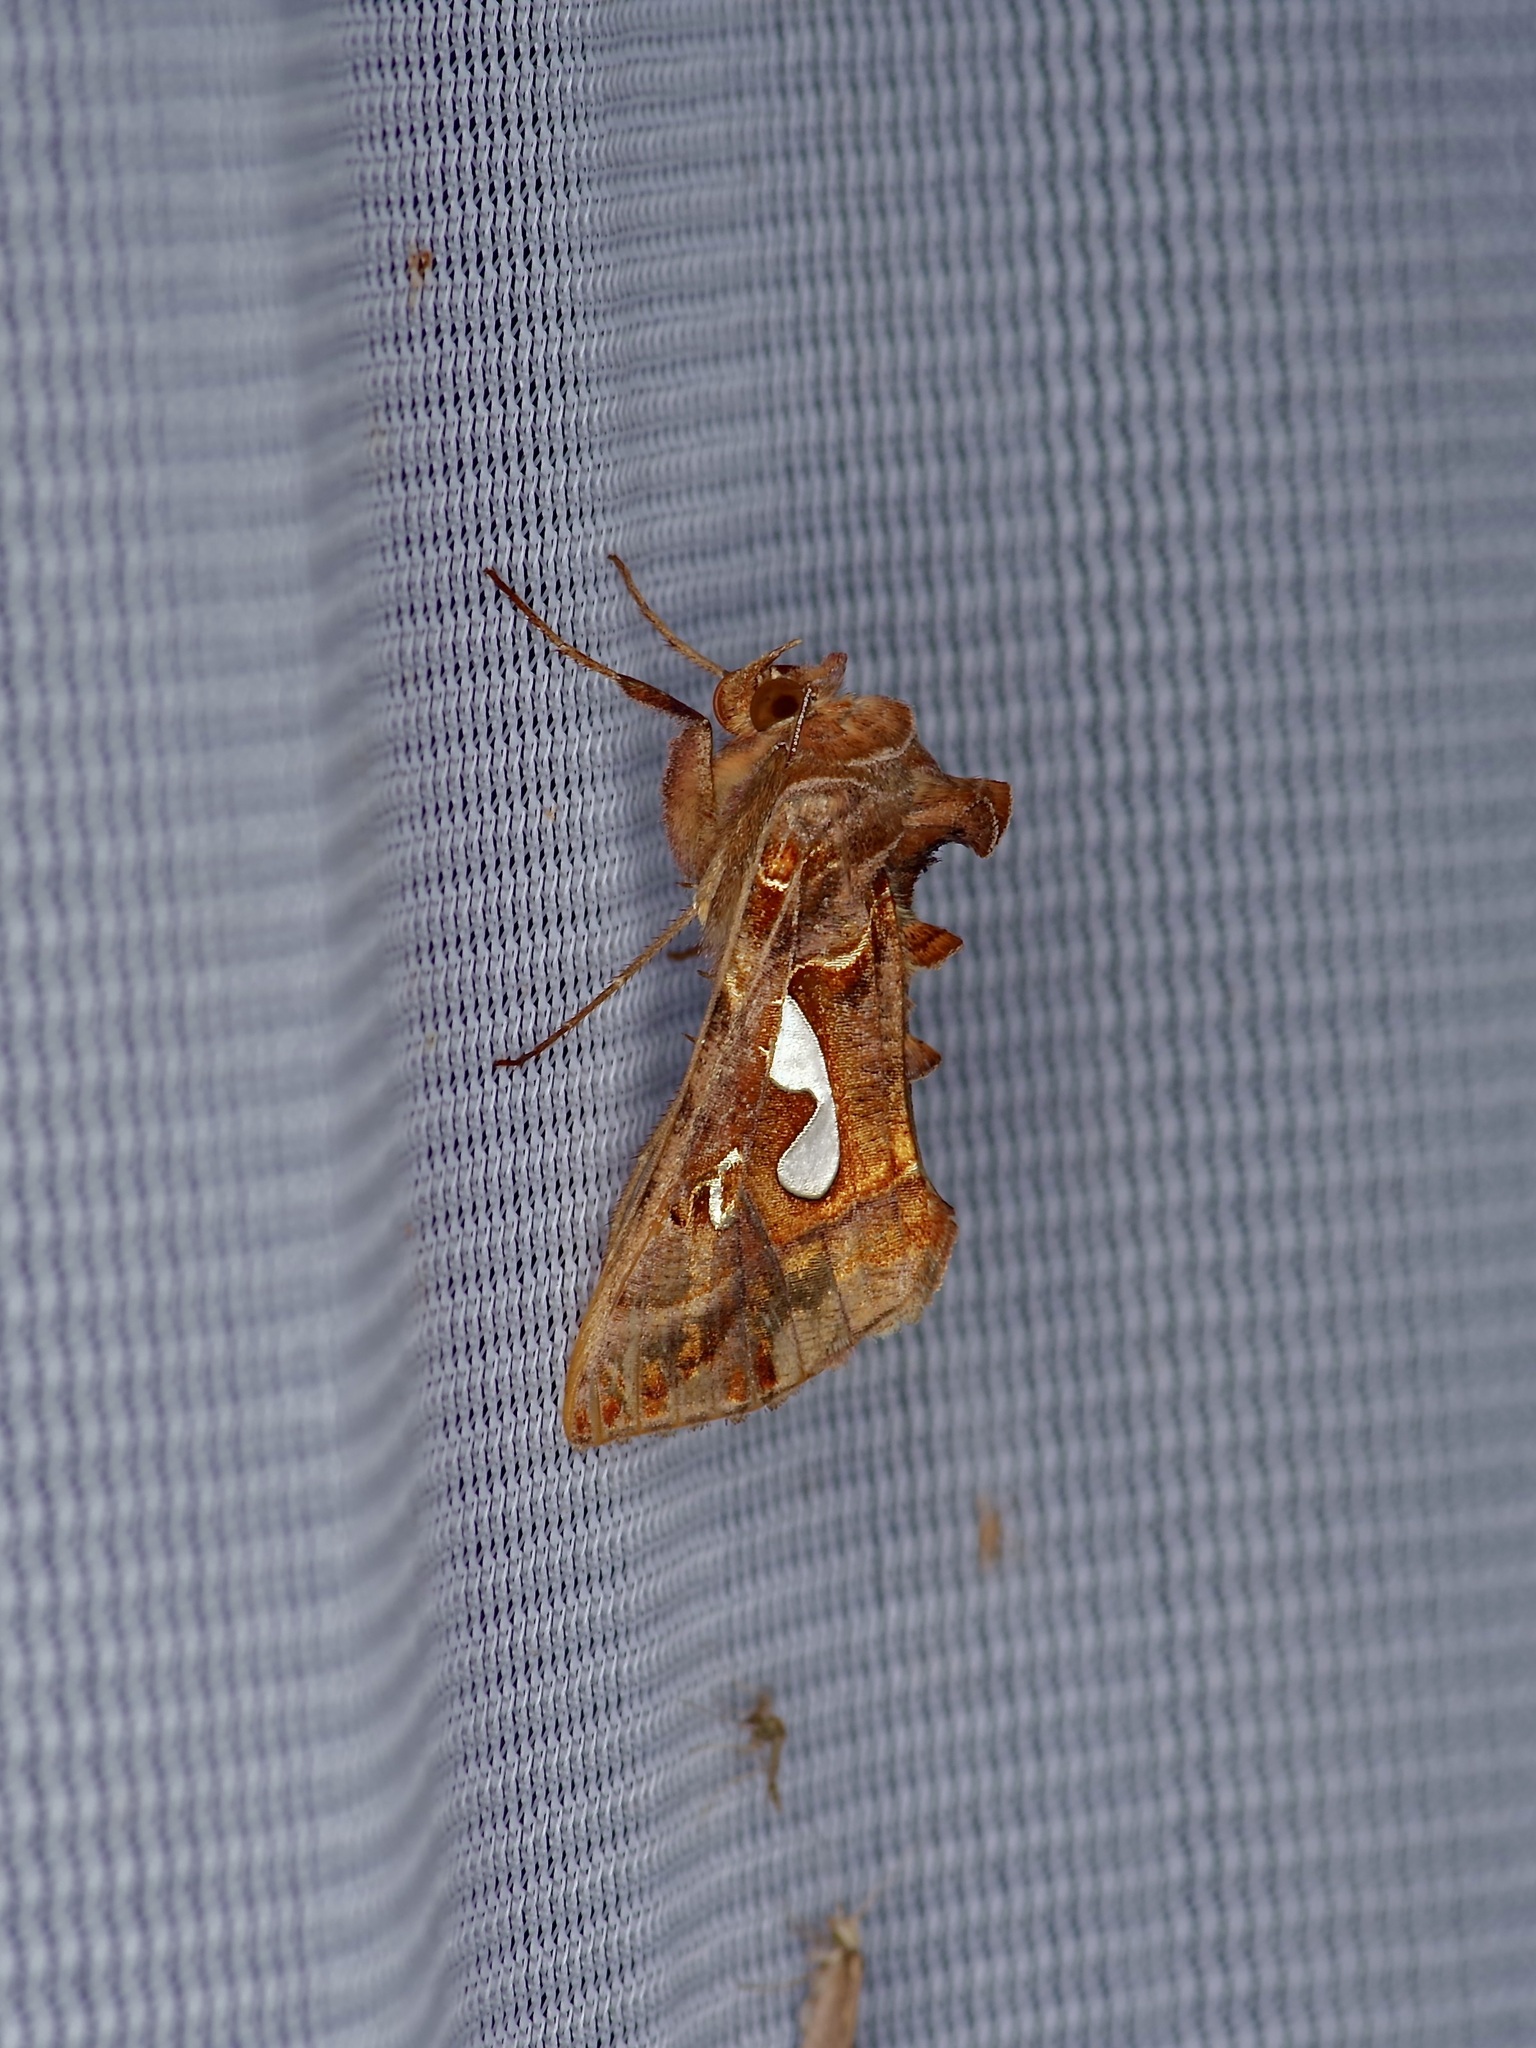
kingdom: Animalia
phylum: Arthropoda
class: Insecta
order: Lepidoptera
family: Noctuidae
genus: Megalographa
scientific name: Megalographa biloba
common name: Cutworm
